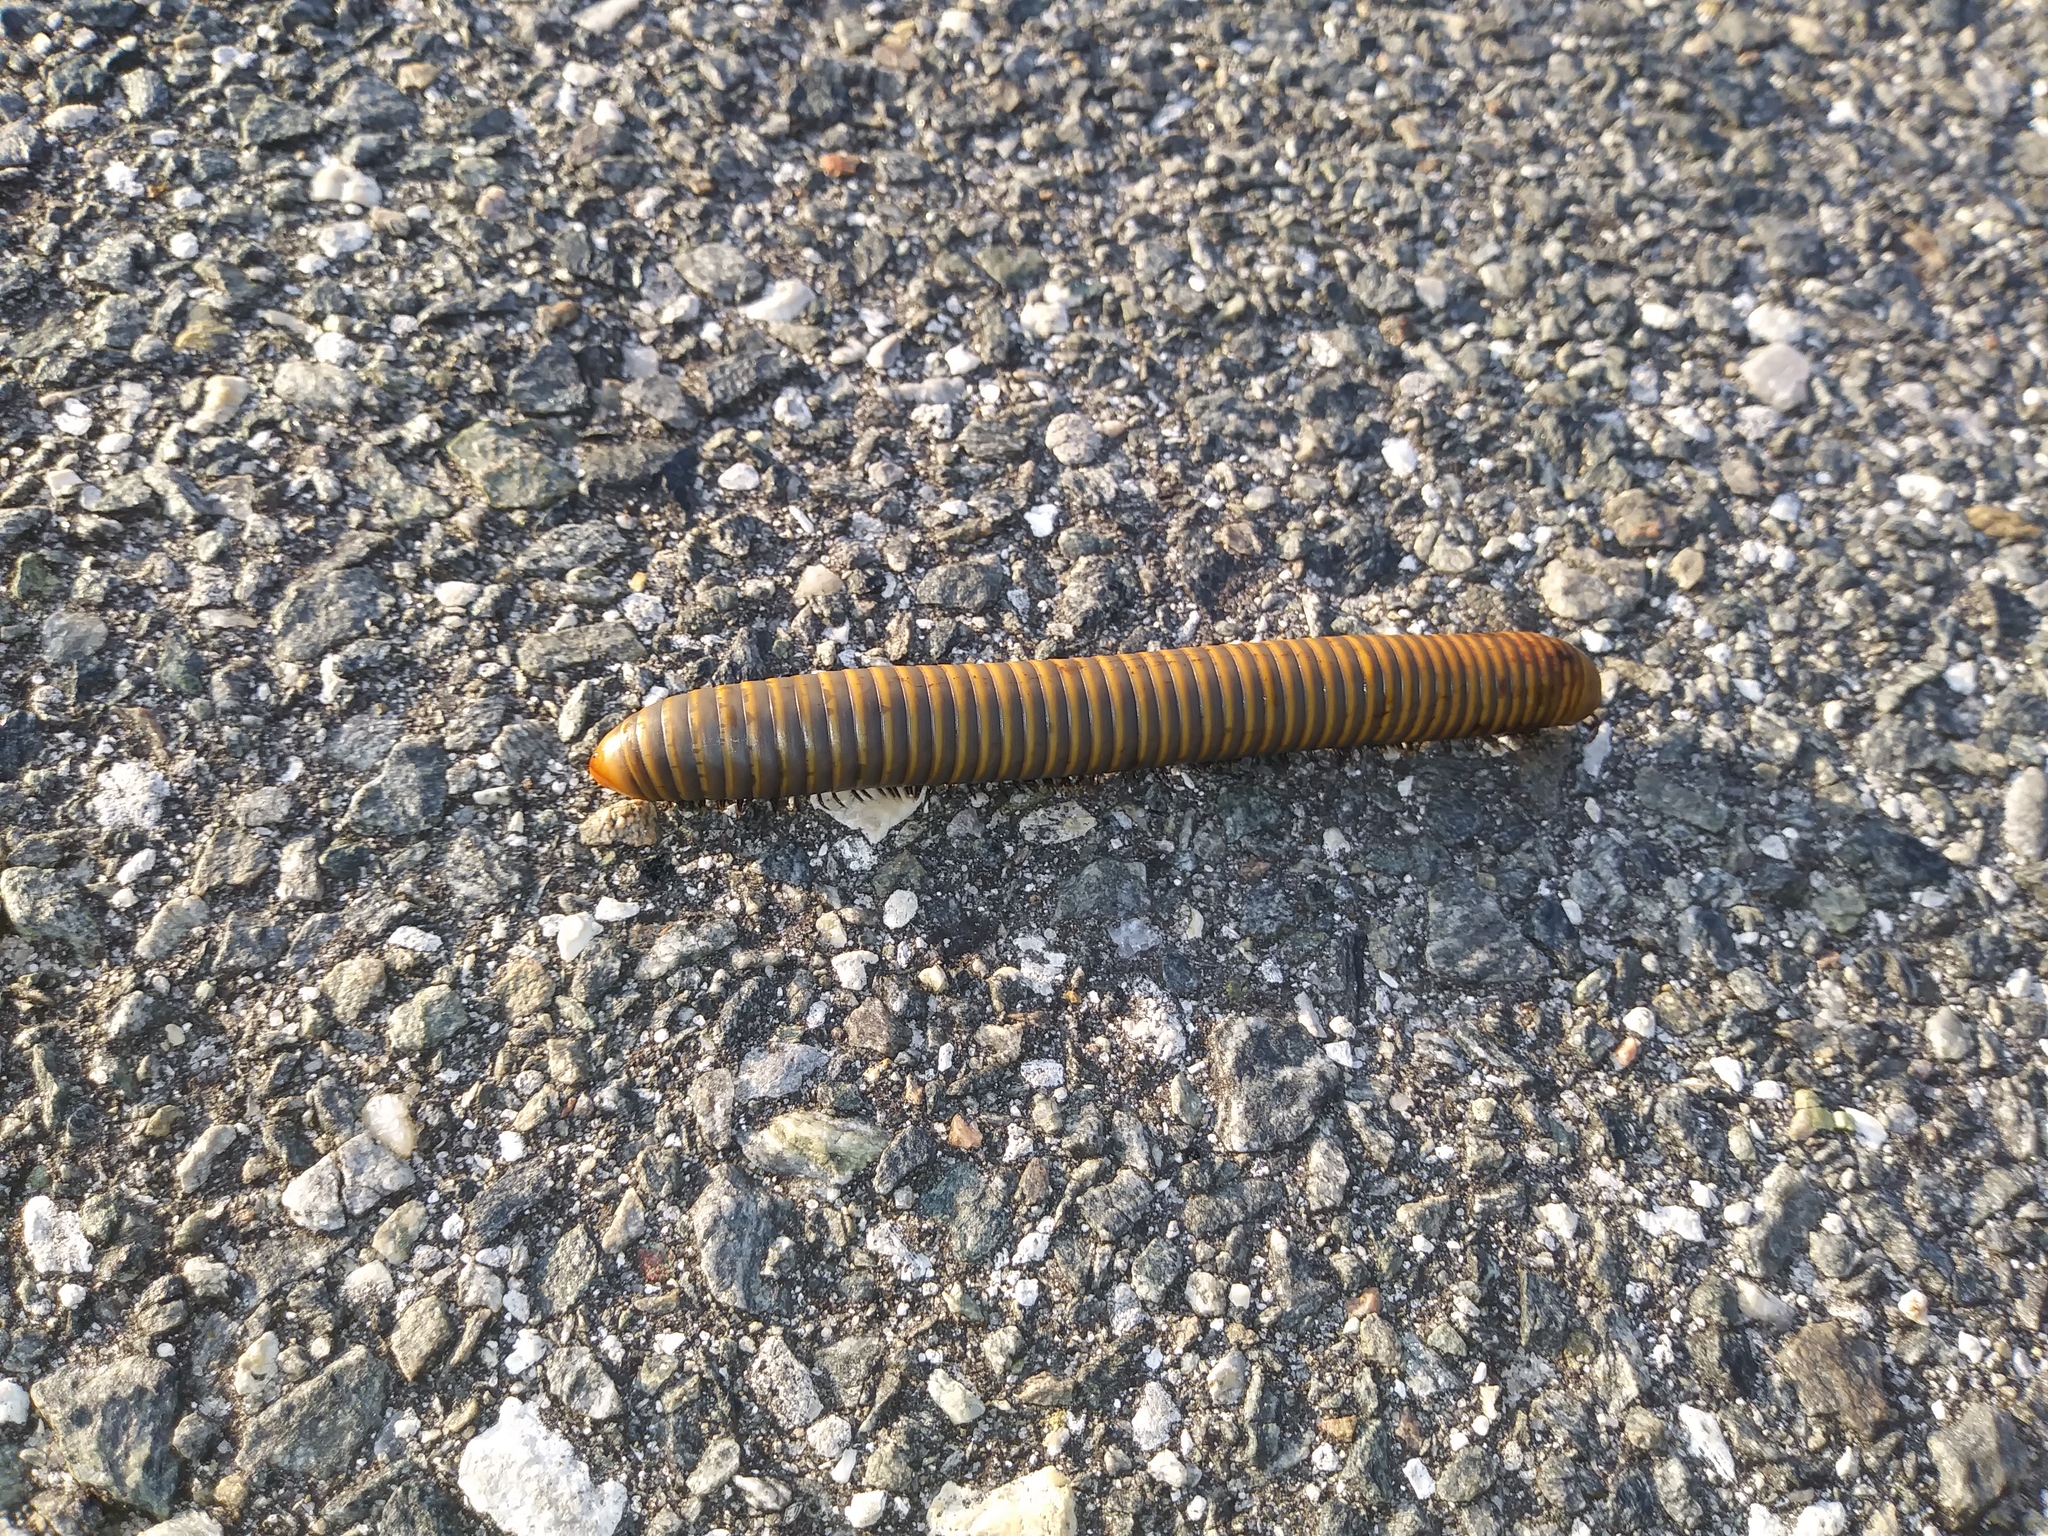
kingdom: Animalia
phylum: Arthropoda
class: Diplopoda
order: Spirobolida
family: Spirobolidae
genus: Narceus
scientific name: Narceus gordanus
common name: Grayish-green millipede
